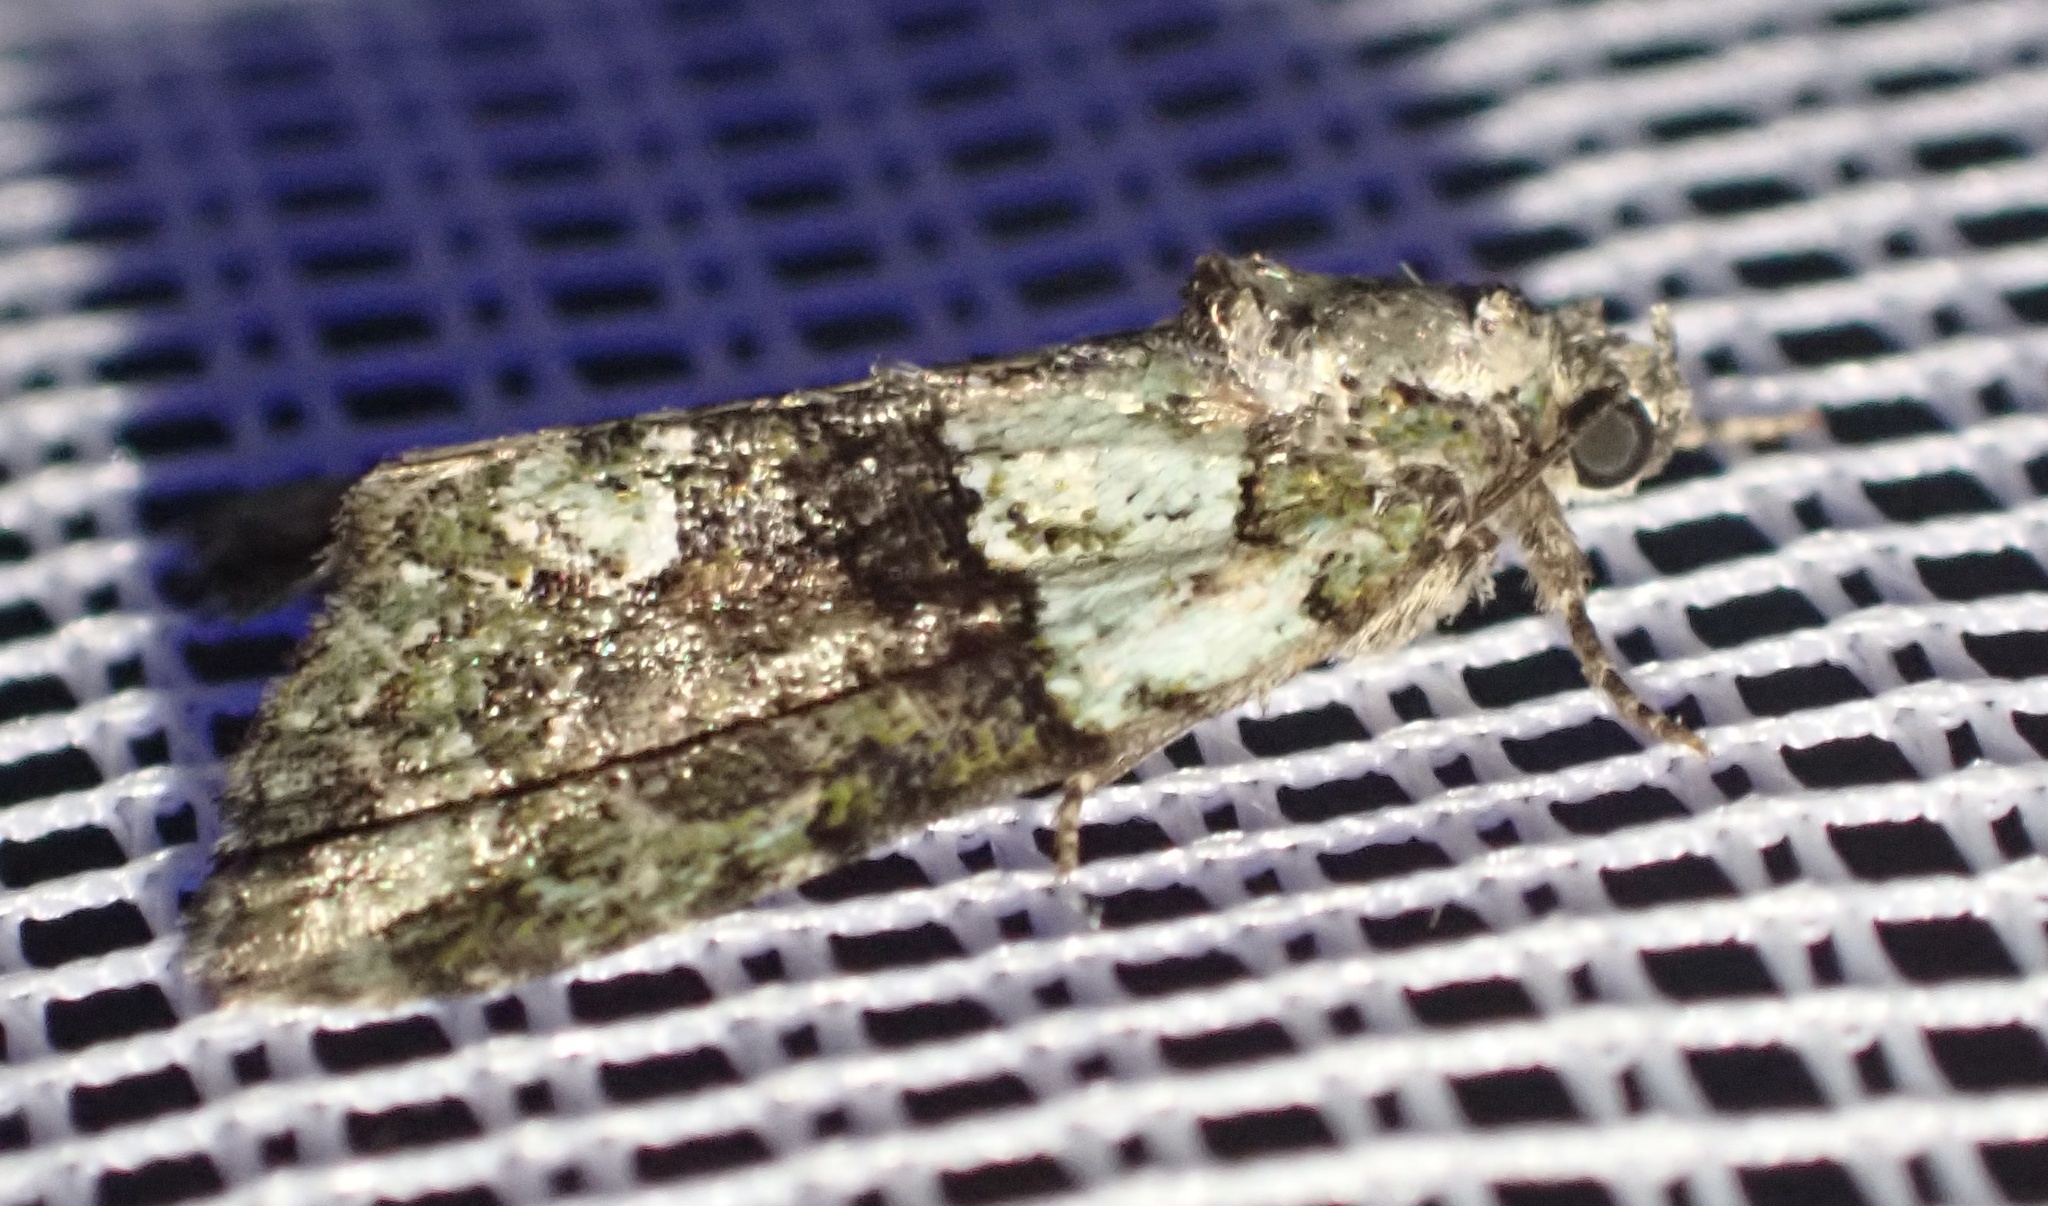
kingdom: Animalia
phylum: Arthropoda
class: Insecta
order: Lepidoptera
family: Noctuidae
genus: Cryphia
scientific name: Cryphia algae
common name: Tree-lichen beauty
